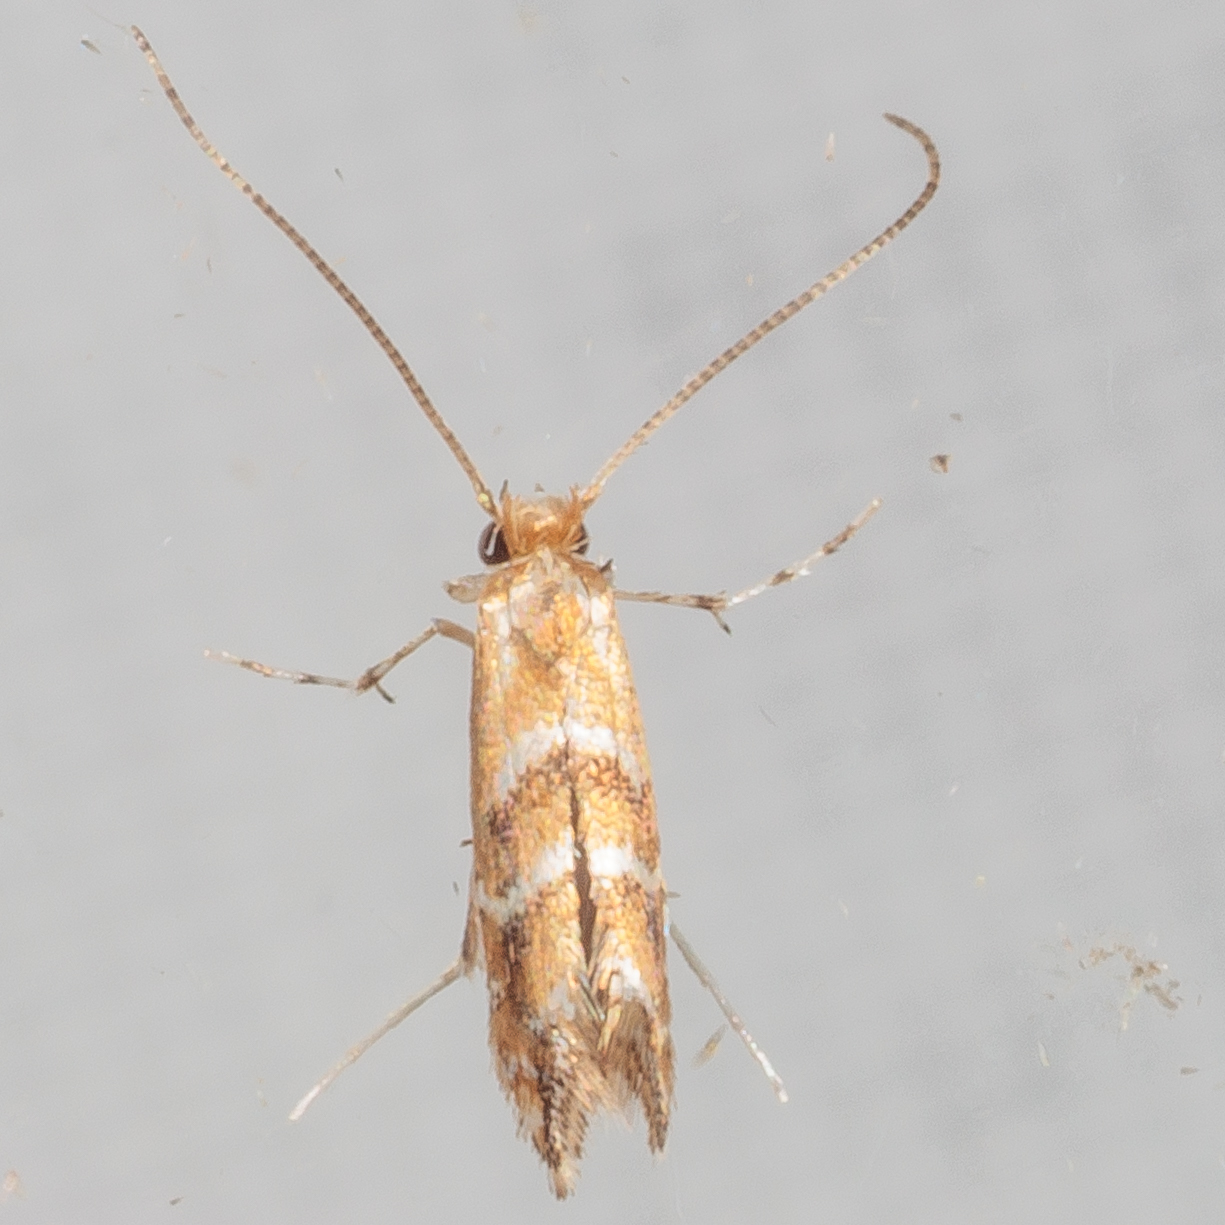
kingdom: Animalia
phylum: Arthropoda
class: Insecta
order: Lepidoptera
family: Gracillariidae
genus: Cameraria
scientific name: Cameraria caryaefoliella
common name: Pecan leafminer moth
